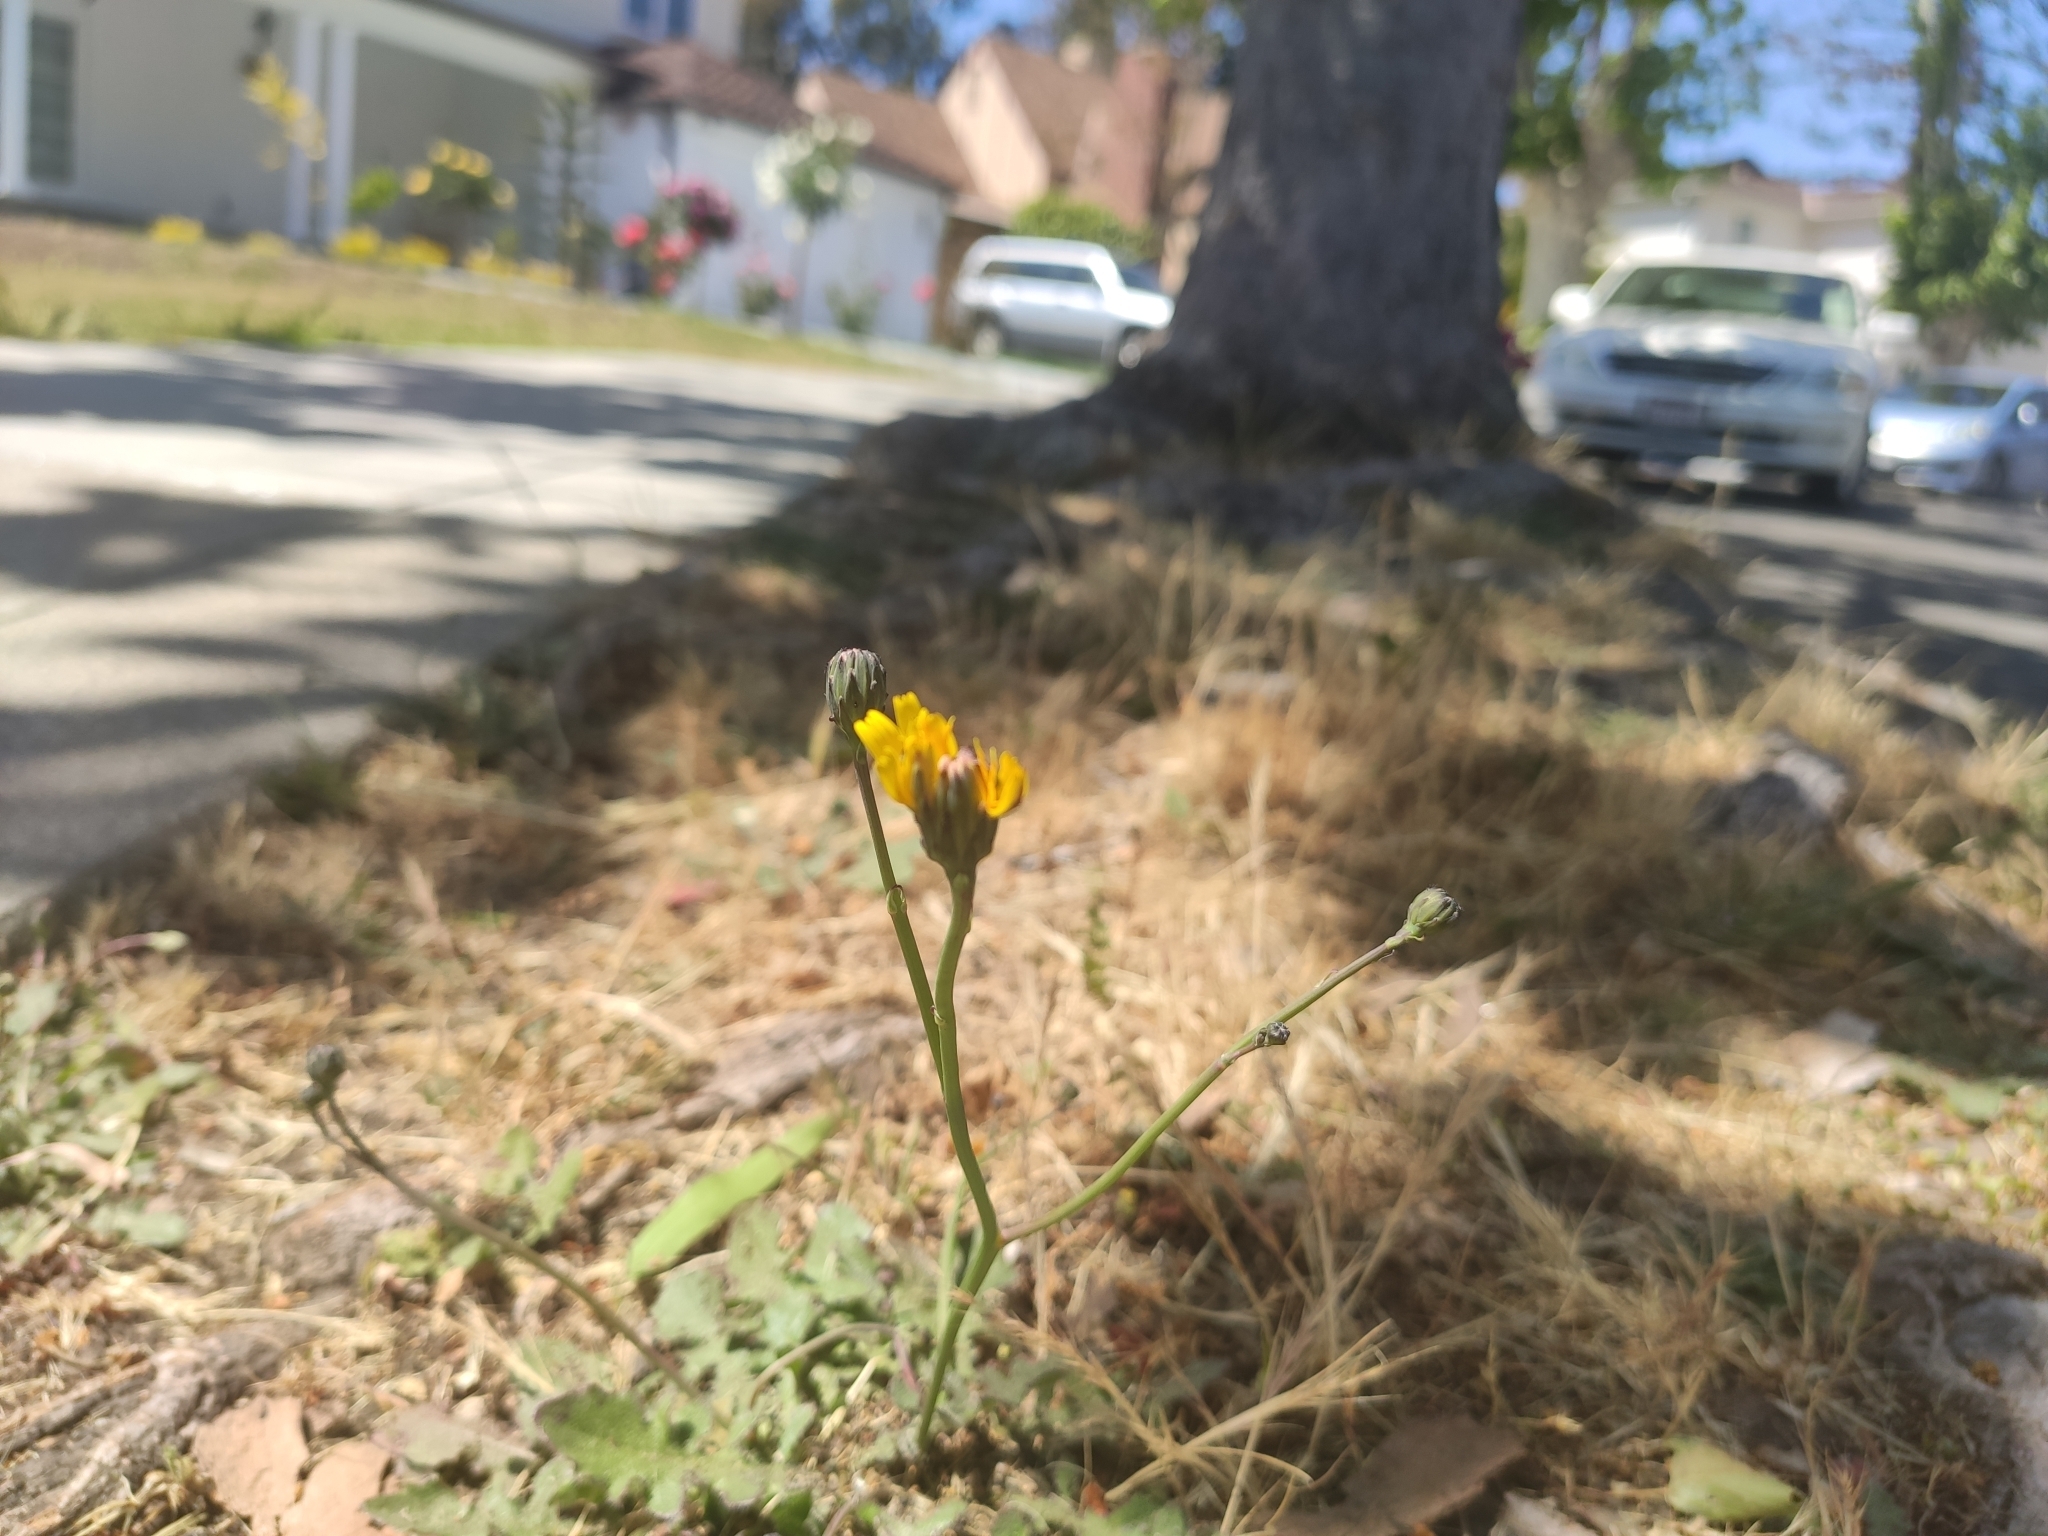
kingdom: Plantae
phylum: Tracheophyta
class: Magnoliopsida
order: Asterales
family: Asteraceae
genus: Hypochaeris
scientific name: Hypochaeris radicata
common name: Flatweed
